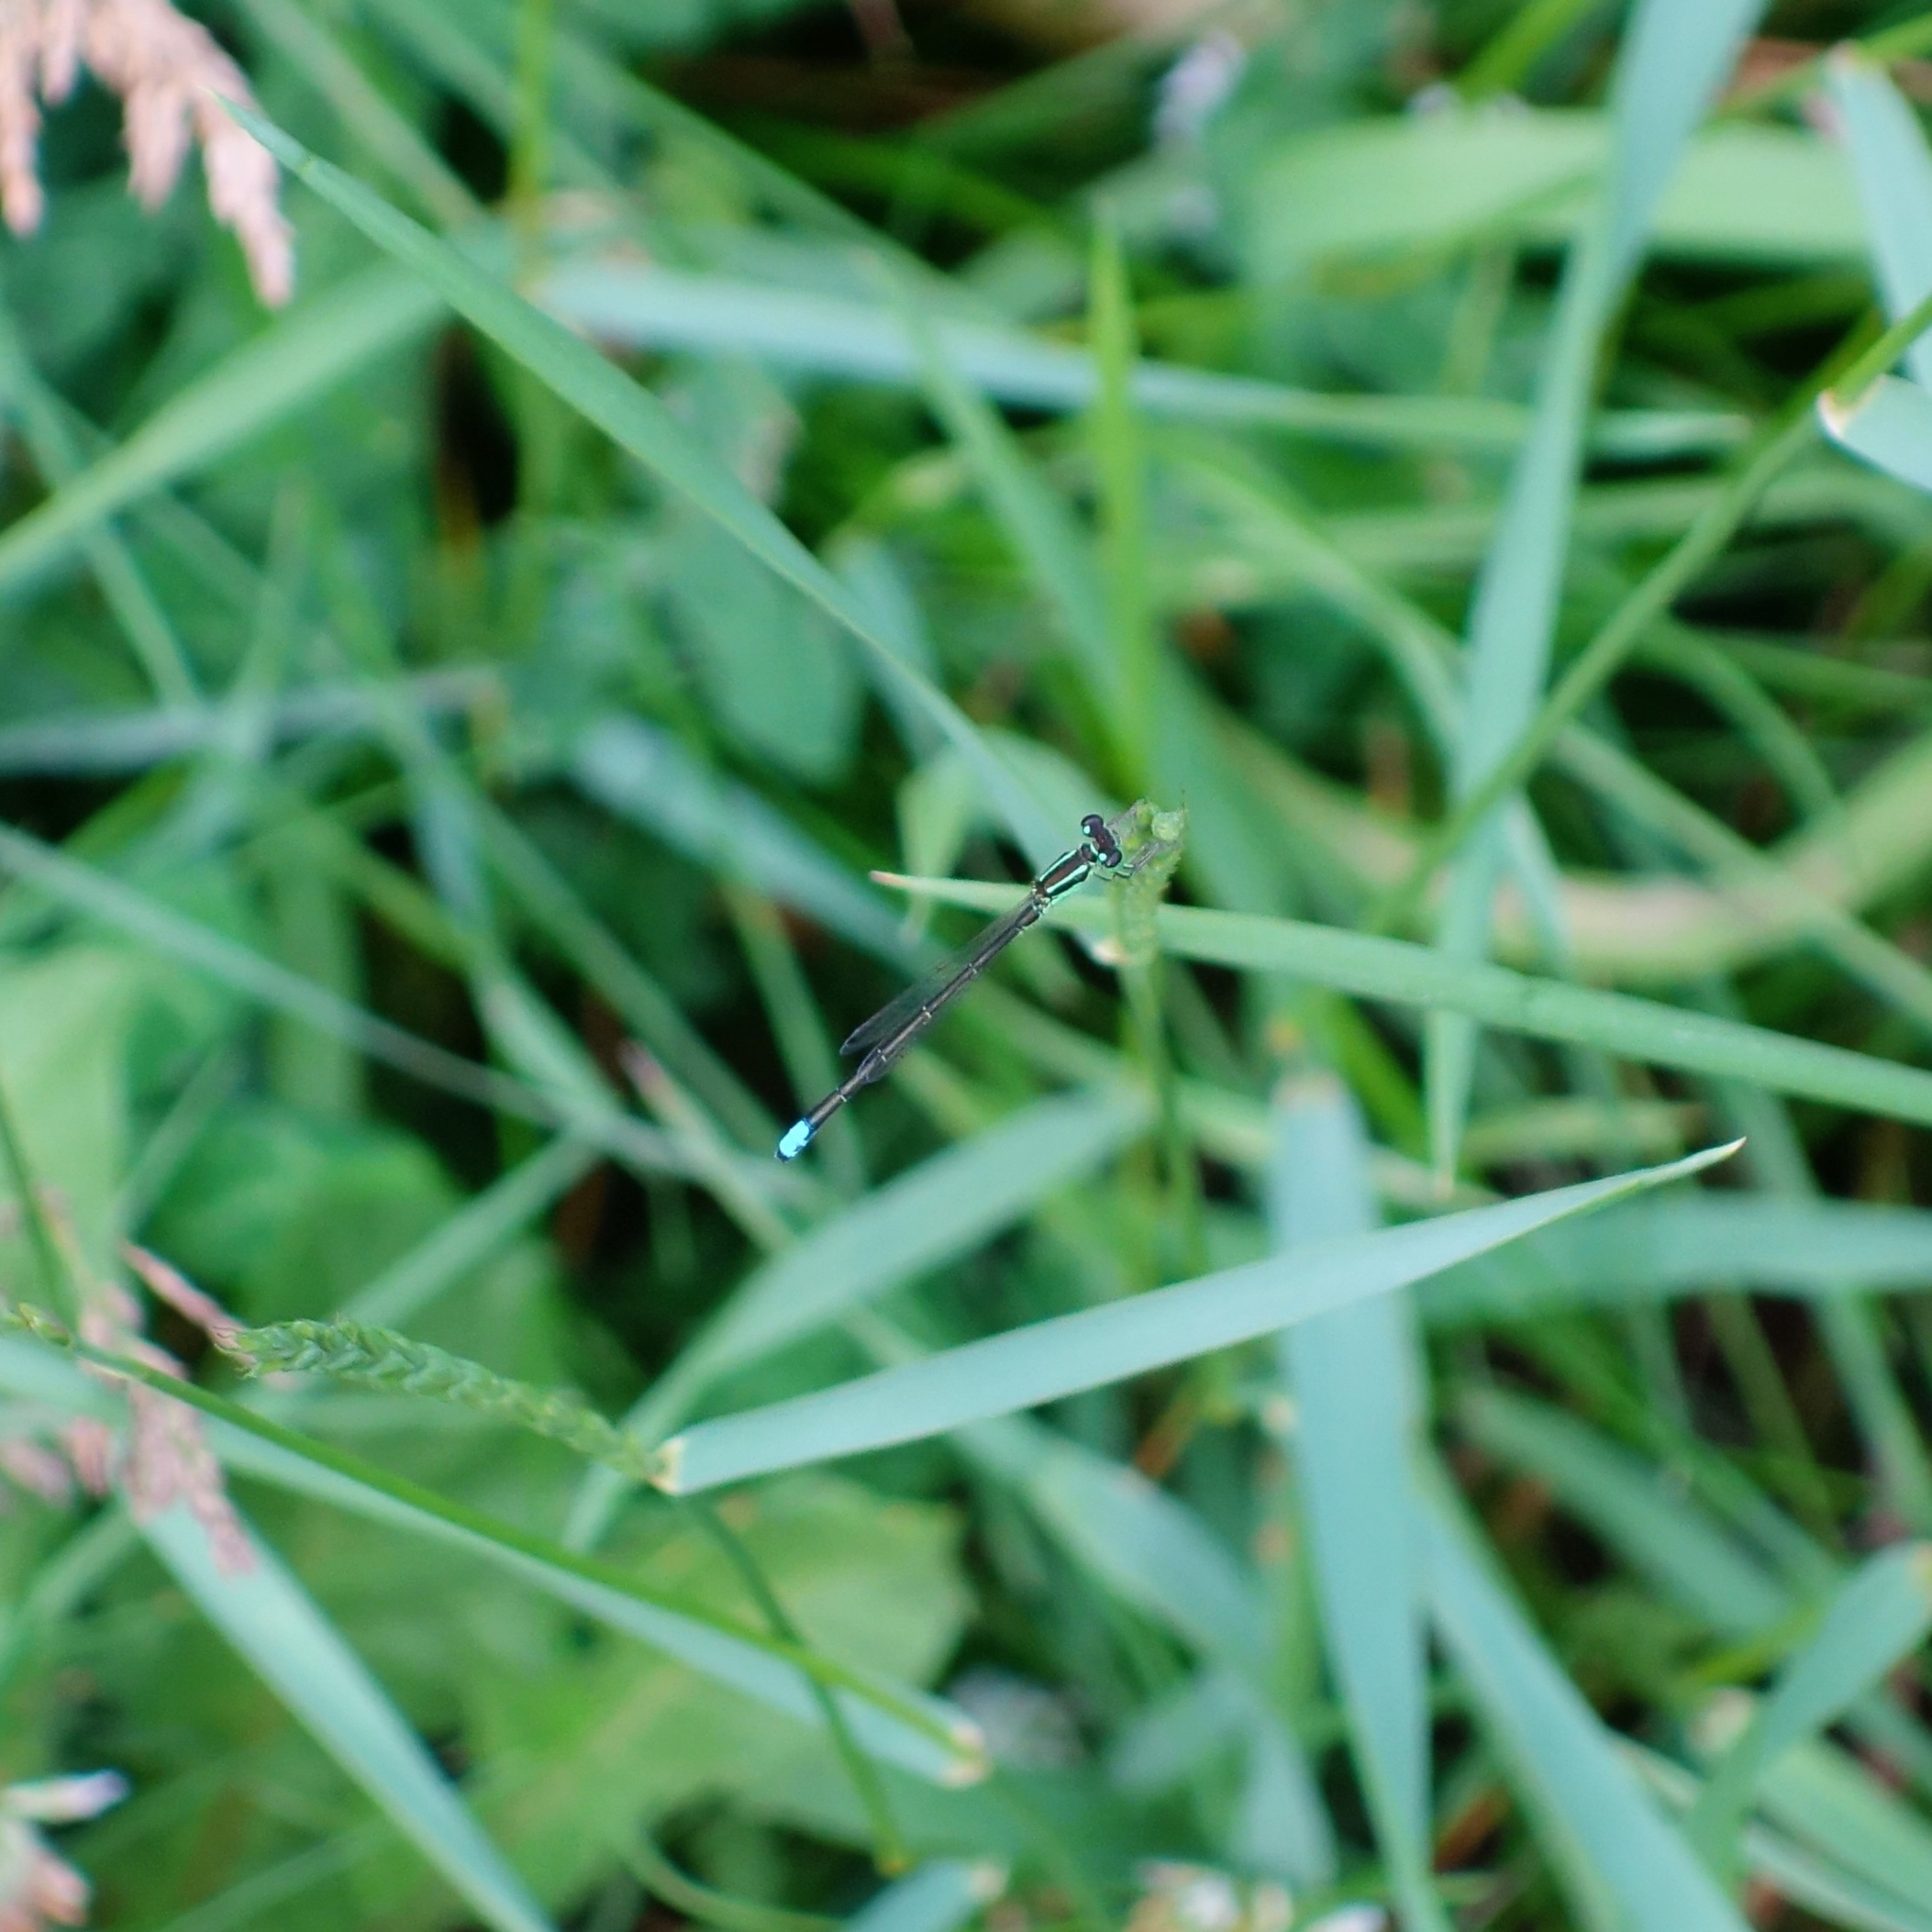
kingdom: Animalia
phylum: Arthropoda
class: Insecta
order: Odonata
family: Coenagrionidae
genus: Ischnura
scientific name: Ischnura verticalis
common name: Eastern forktail
